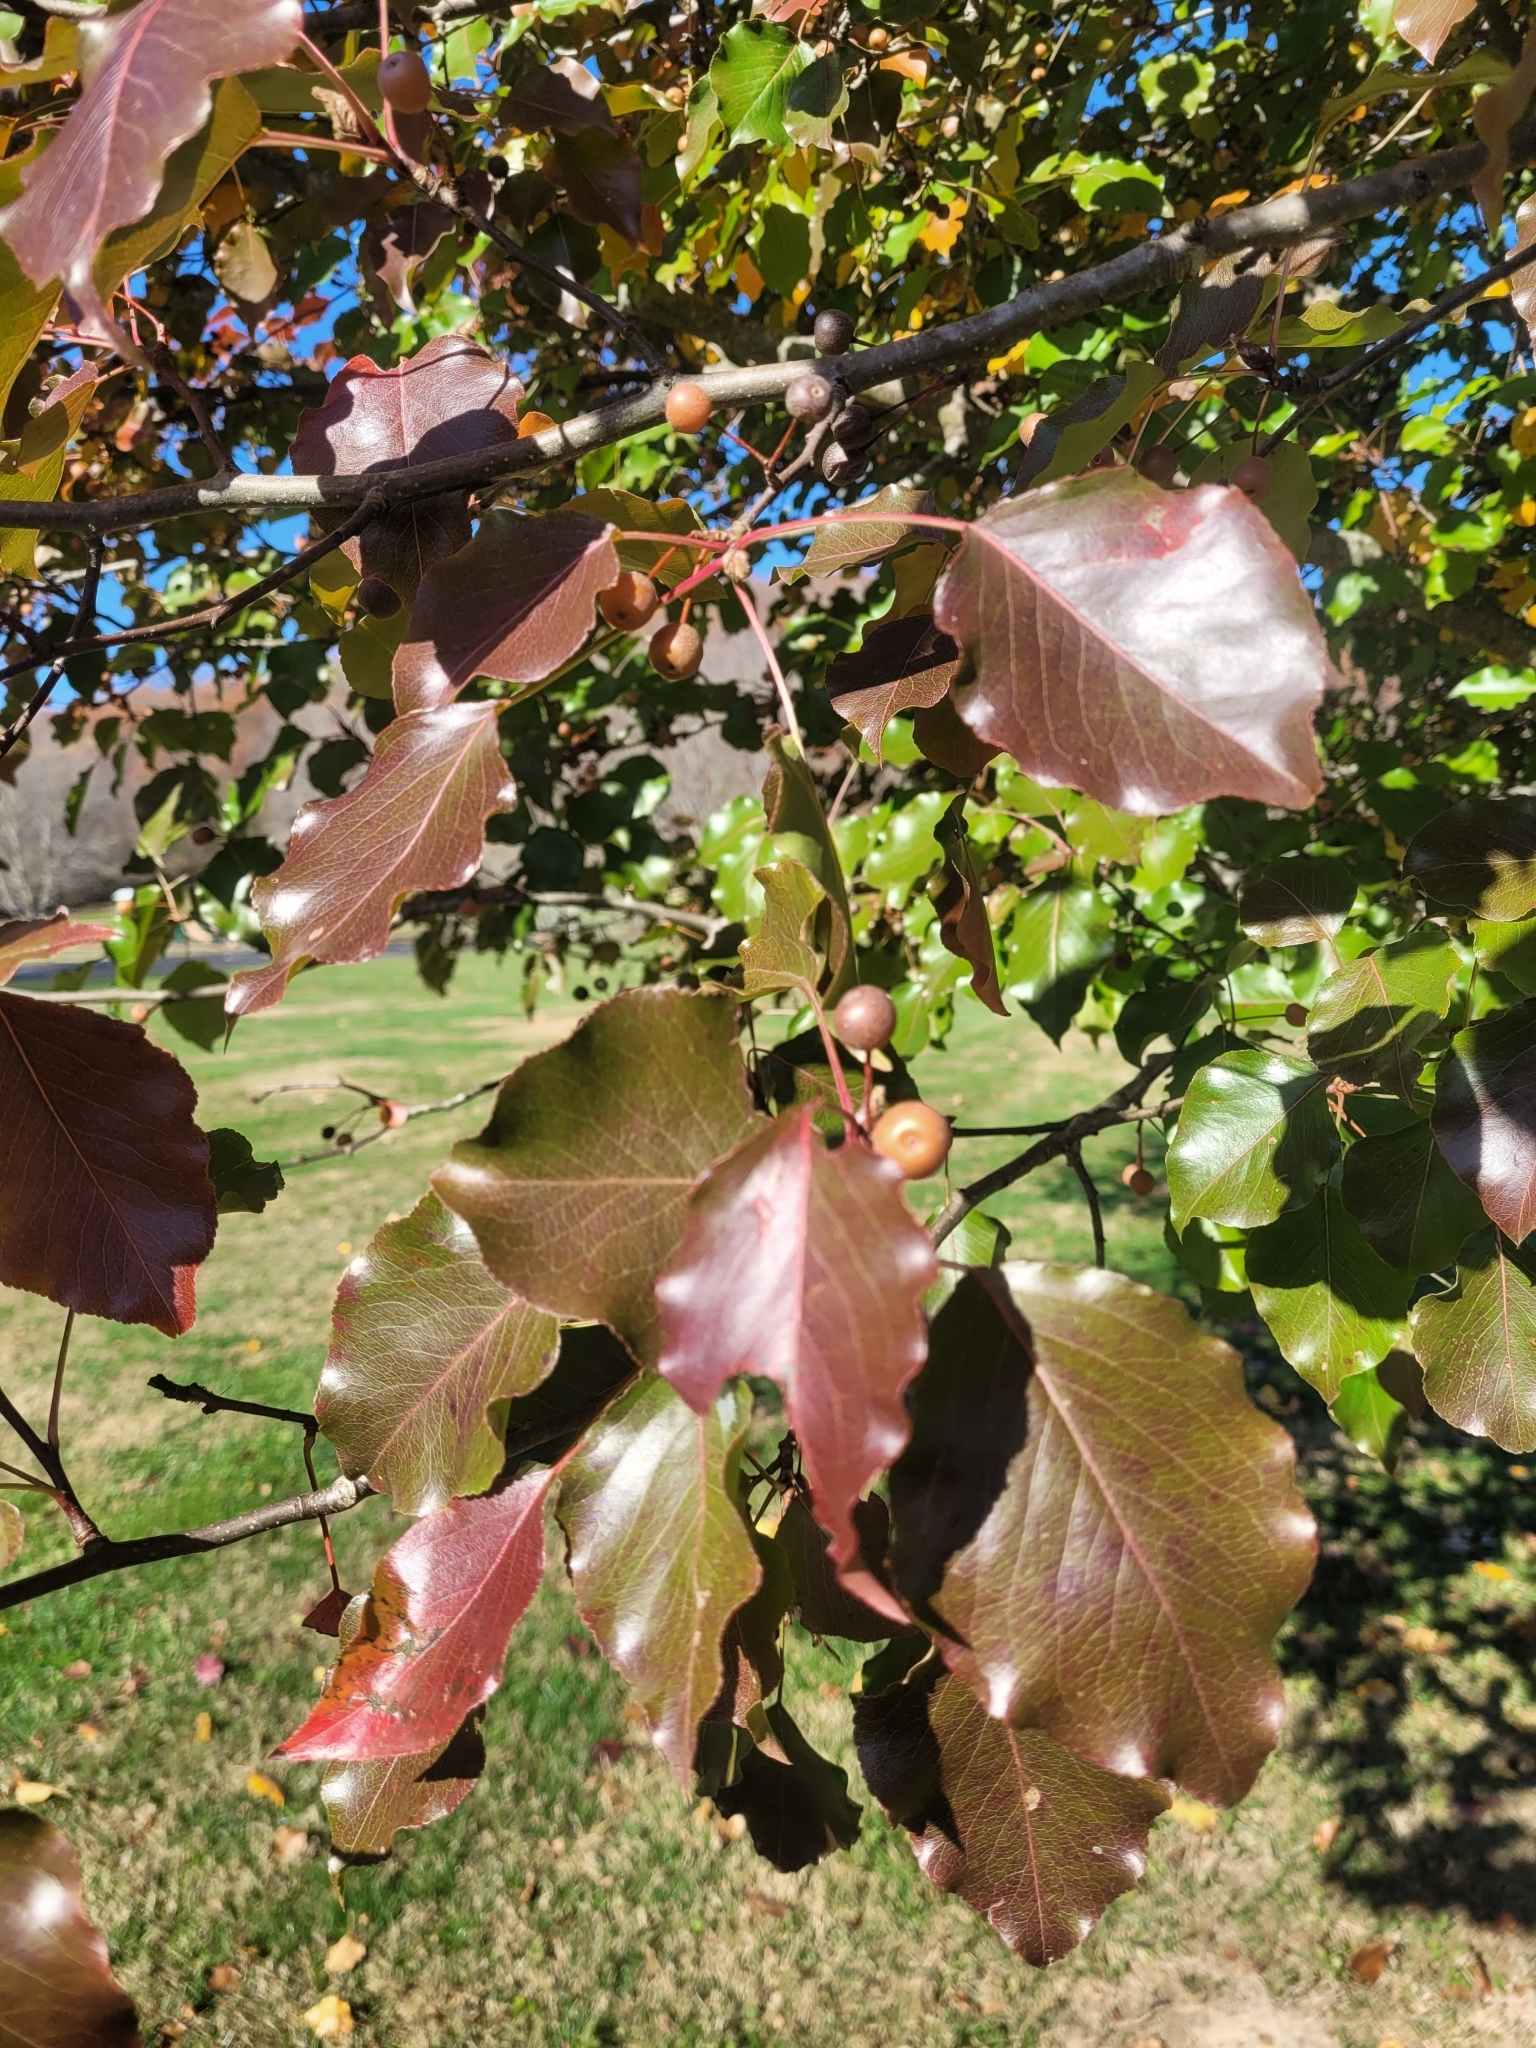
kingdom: Plantae
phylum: Tracheophyta
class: Magnoliopsida
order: Rosales
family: Rosaceae
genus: Pyrus
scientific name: Pyrus calleryana
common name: Callery pear
